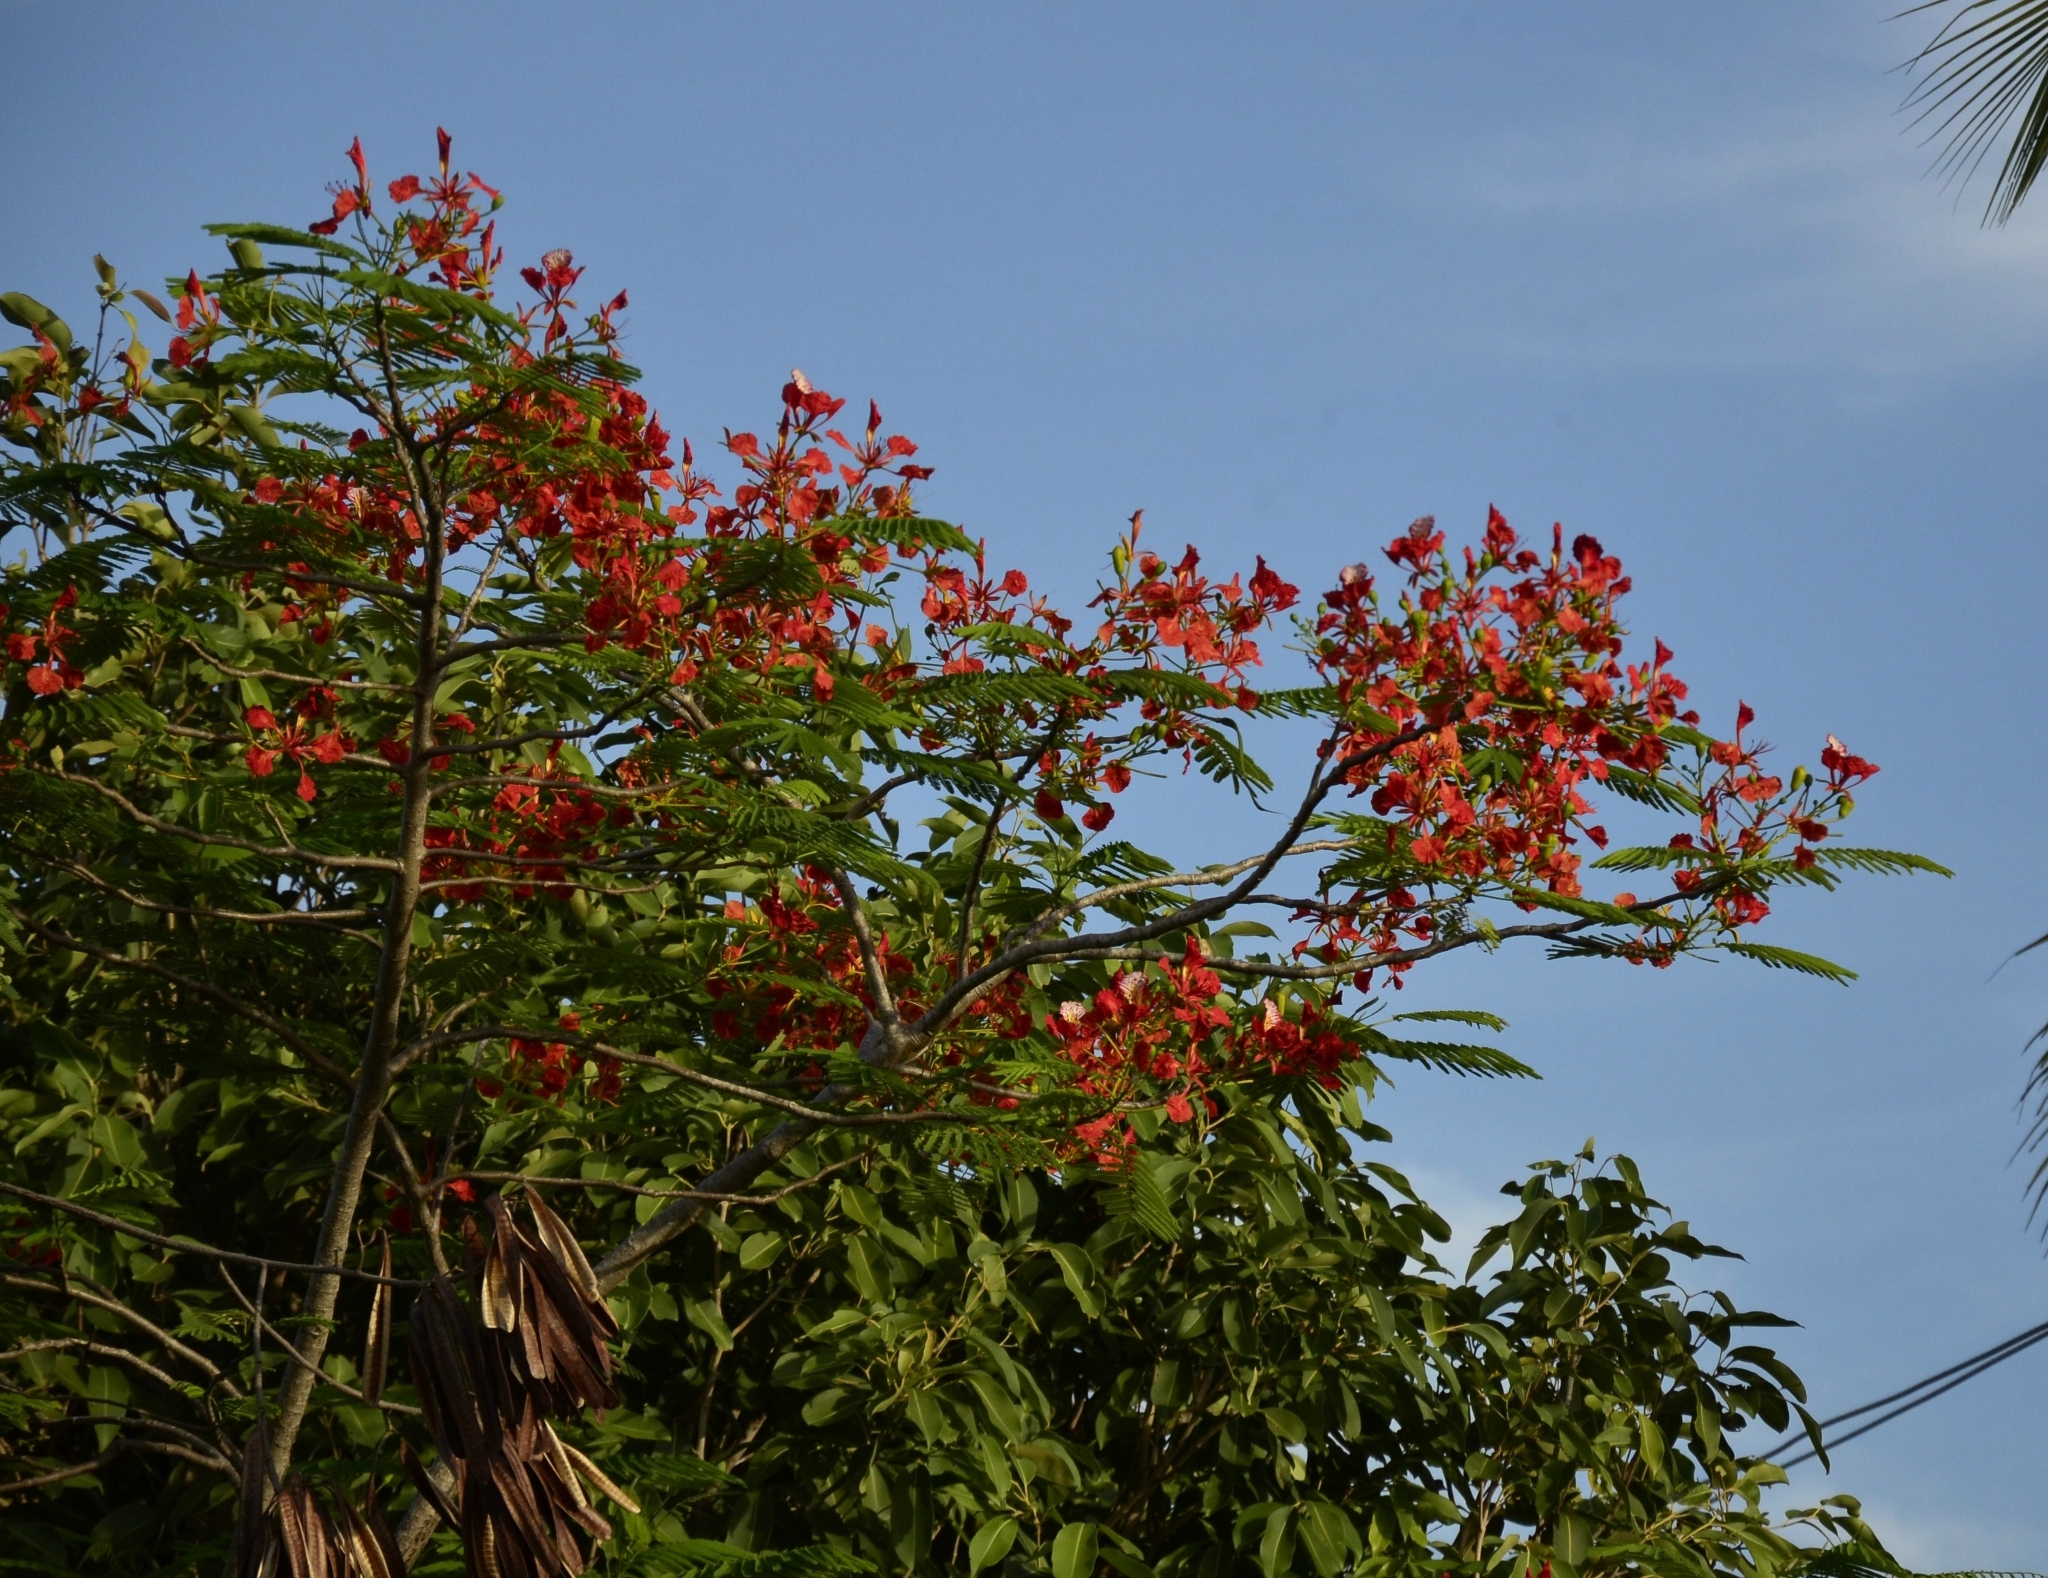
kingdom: Plantae
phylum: Tracheophyta
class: Magnoliopsida
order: Fabales
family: Fabaceae
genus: Delonix
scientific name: Delonix regia
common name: Royal poinciana
